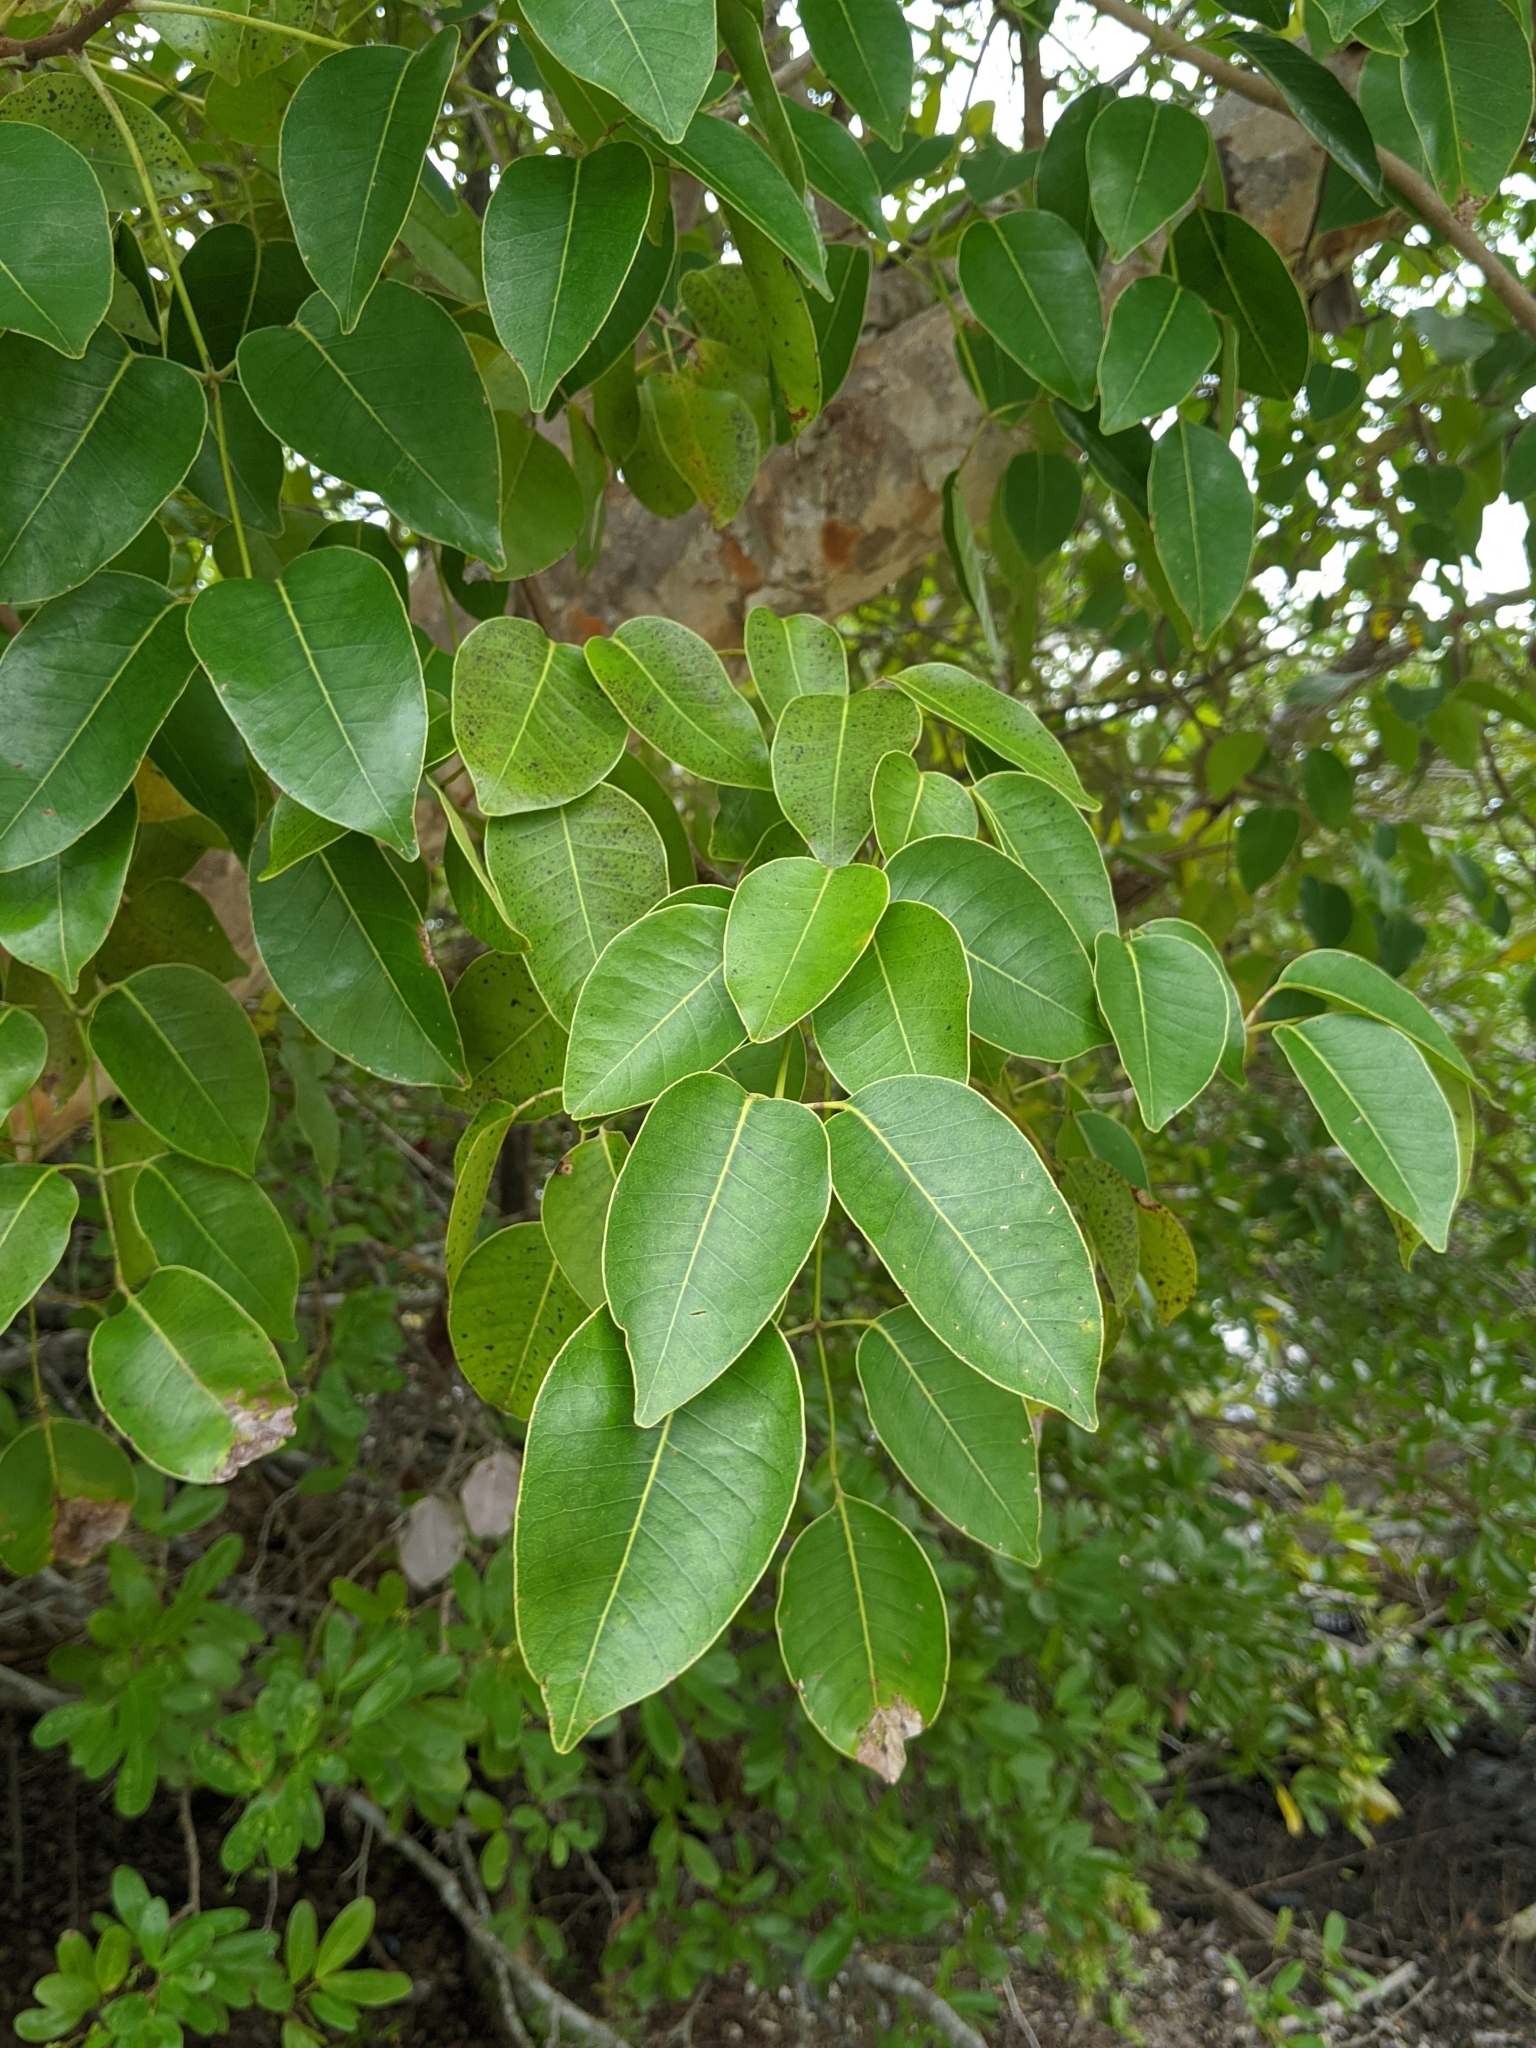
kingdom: Plantae
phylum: Tracheophyta
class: Magnoliopsida
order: Sapindales
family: Anacardiaceae
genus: Metopium
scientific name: Metopium toxiferum
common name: Florida poisontree
